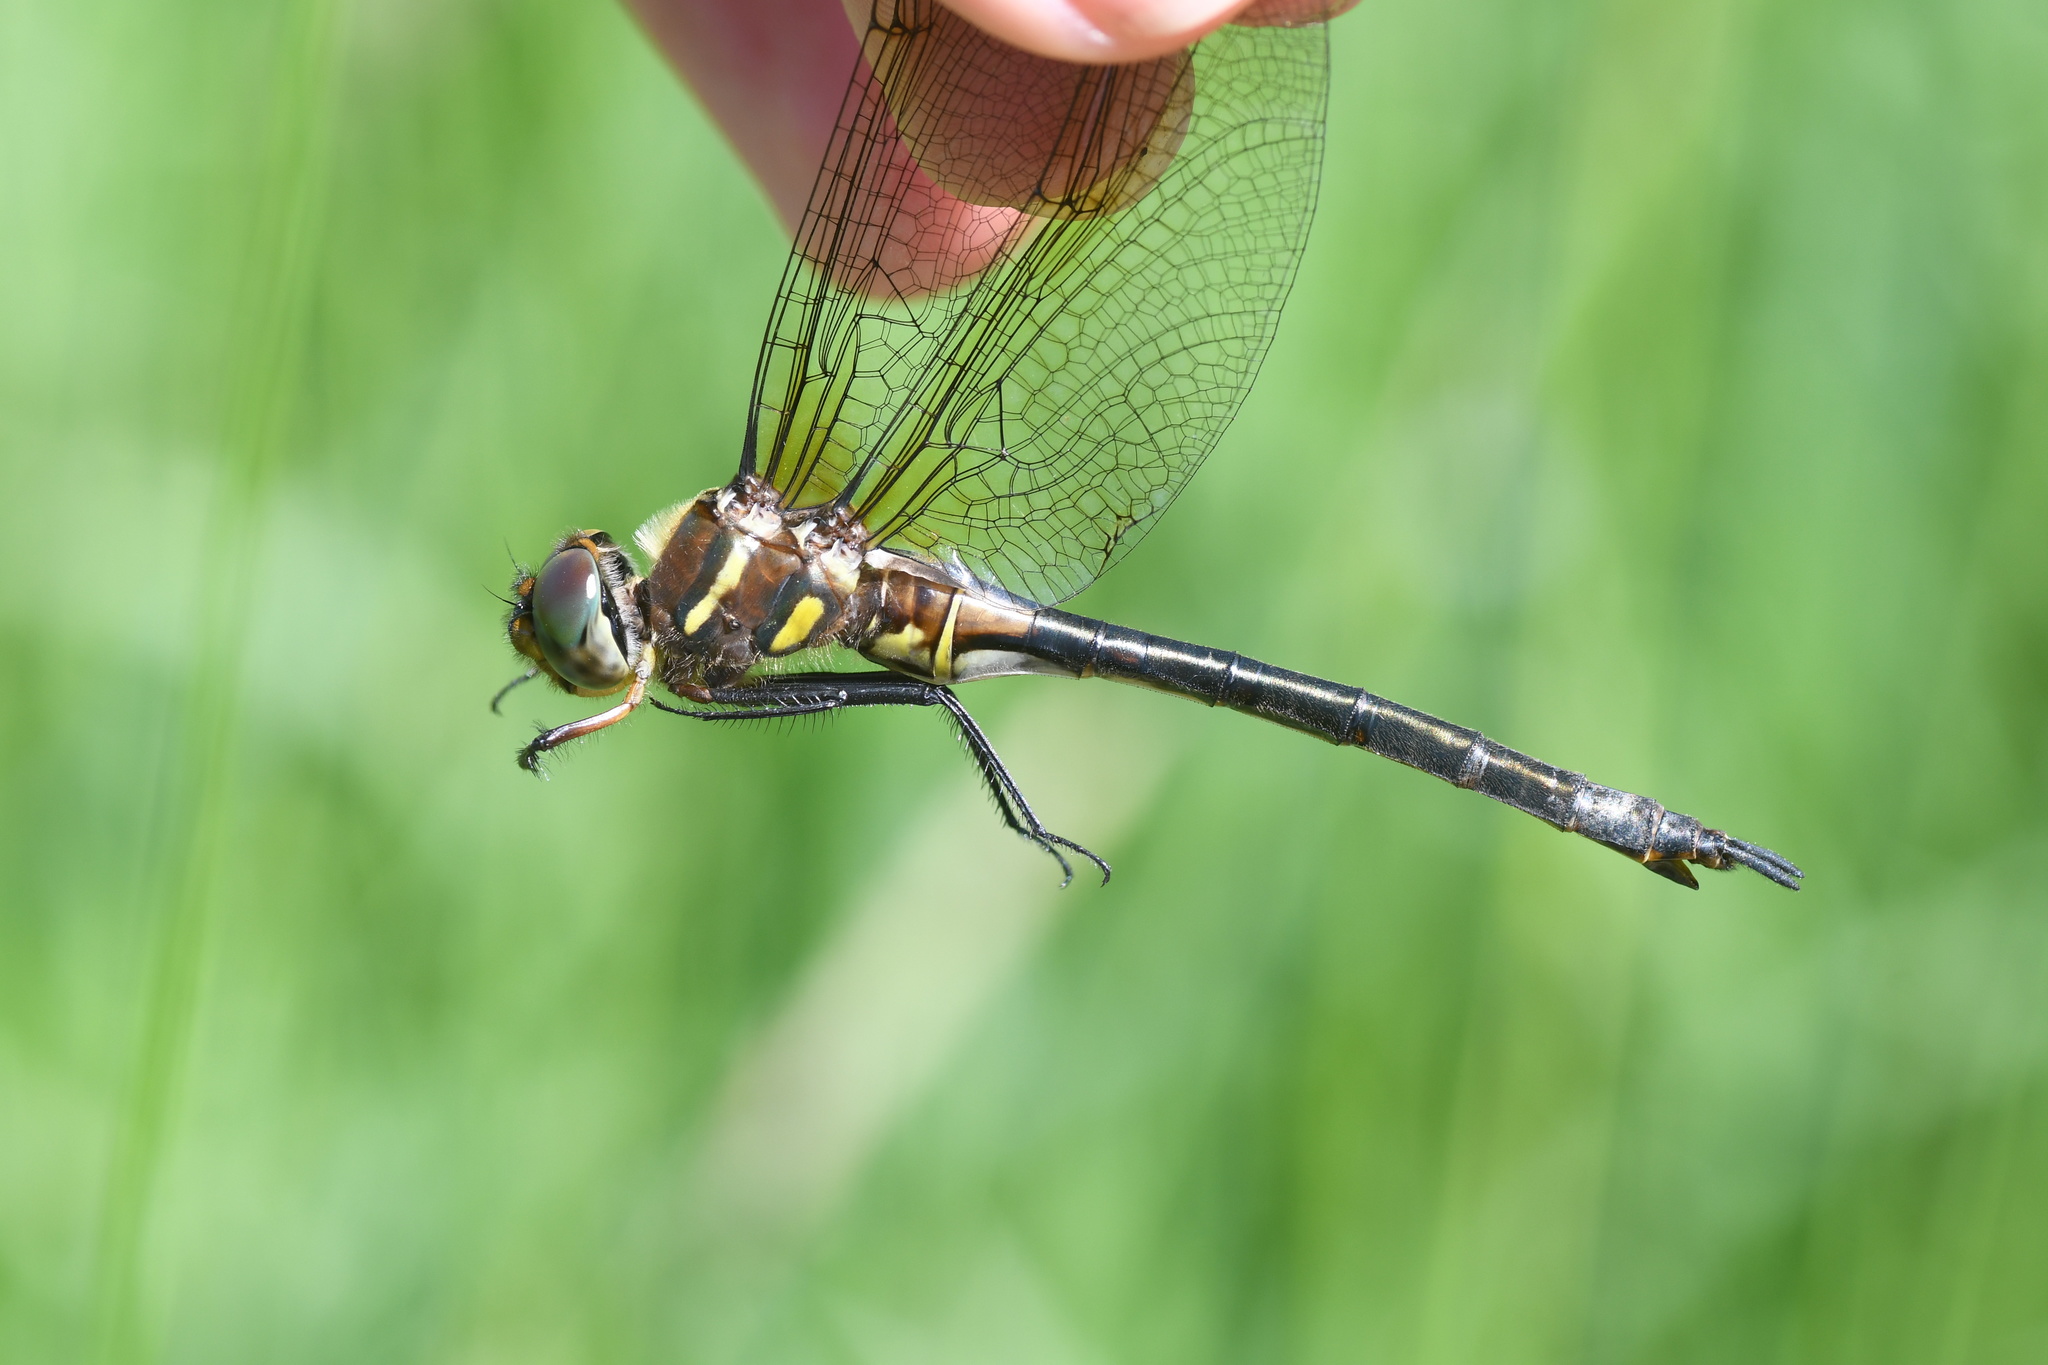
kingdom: Animalia
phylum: Arthropoda
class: Insecta
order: Odonata
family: Corduliidae
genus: Somatochlora
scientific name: Somatochlora hineana
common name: Hine's emerald
